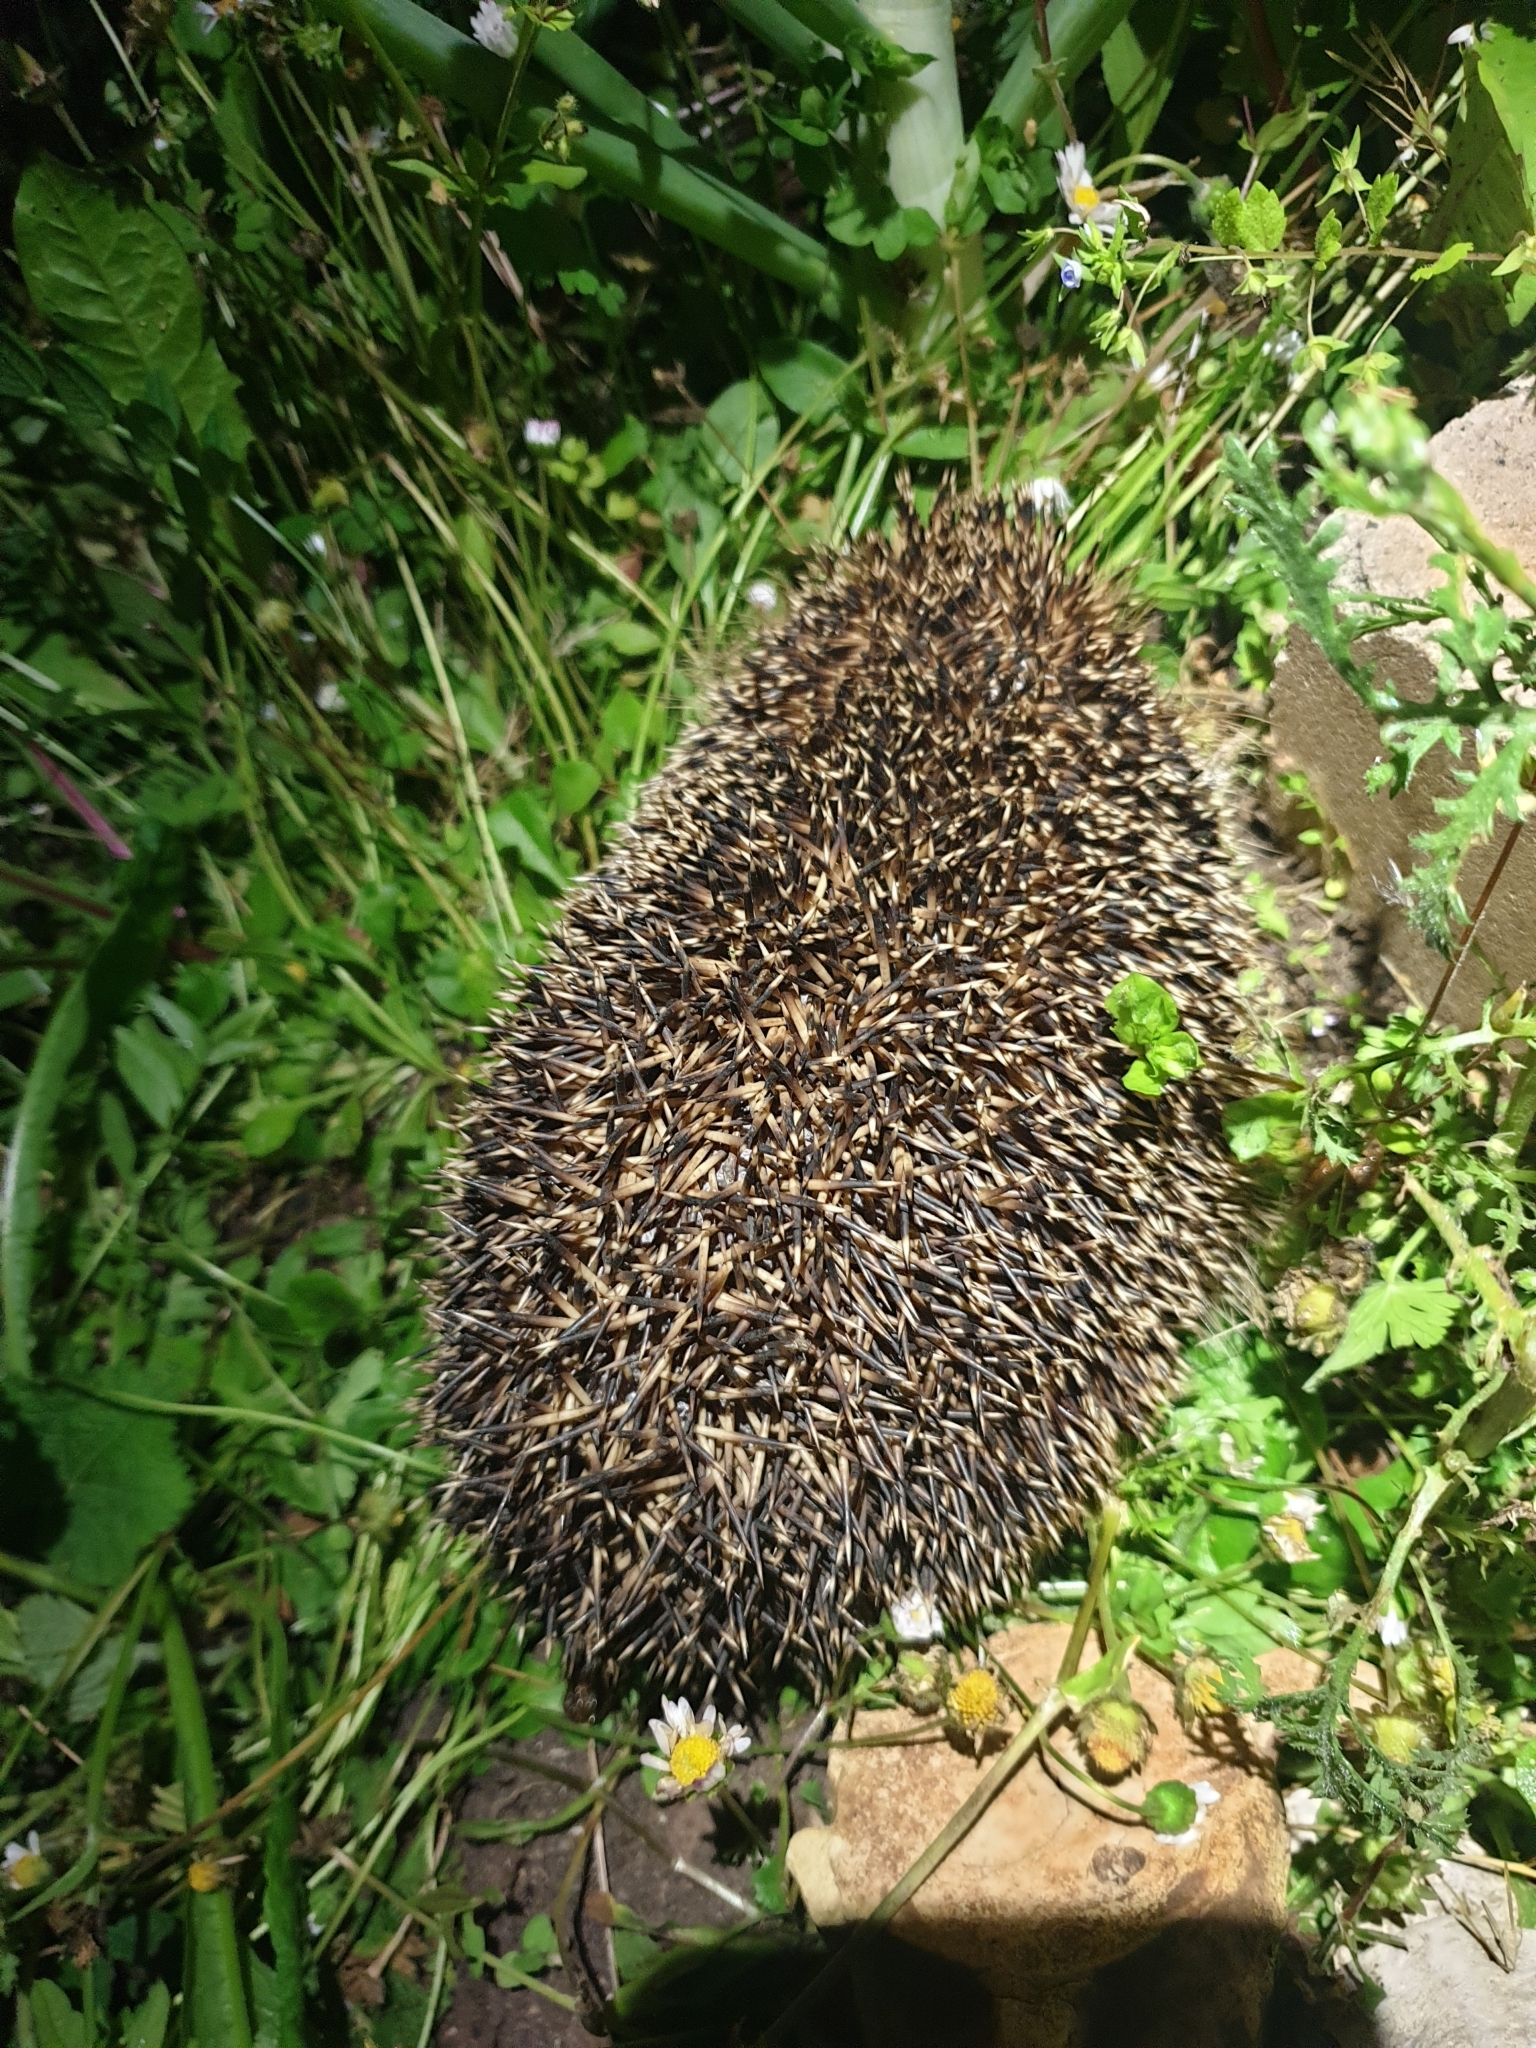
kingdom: Animalia
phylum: Chordata
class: Mammalia
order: Erinaceomorpha
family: Erinaceidae
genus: Erinaceus
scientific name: Erinaceus europaeus
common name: West european hedgehog
